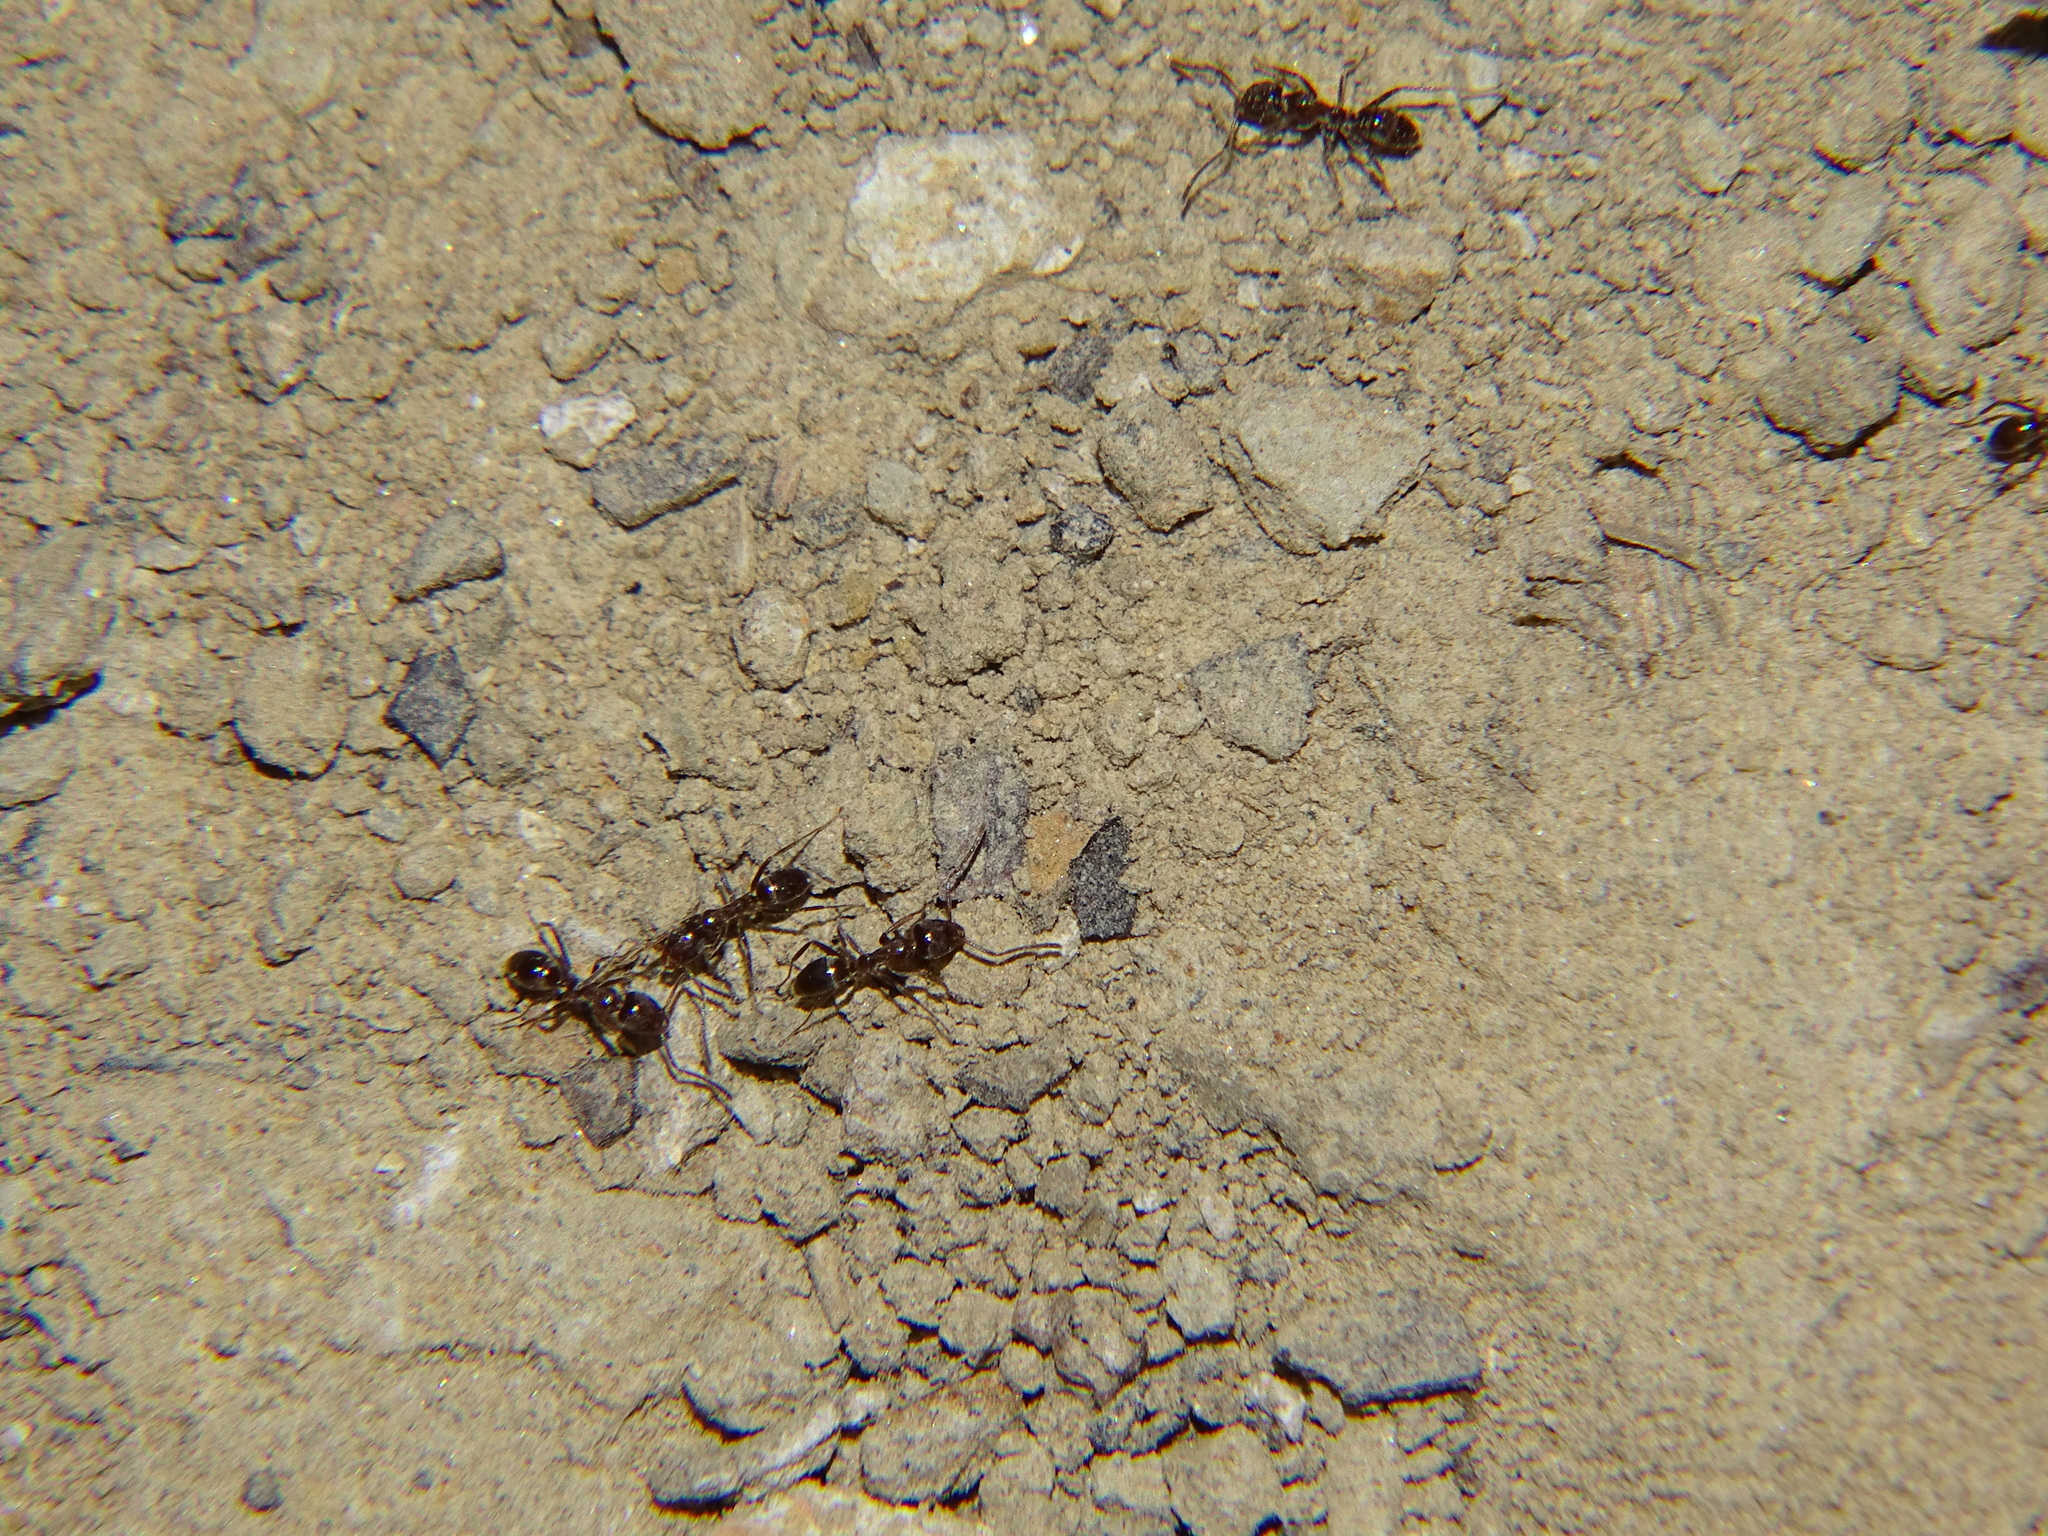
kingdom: Animalia
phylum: Arthropoda
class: Insecta
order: Hymenoptera
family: Formicidae
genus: Linepithema
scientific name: Linepithema humile
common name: Argentine ant
